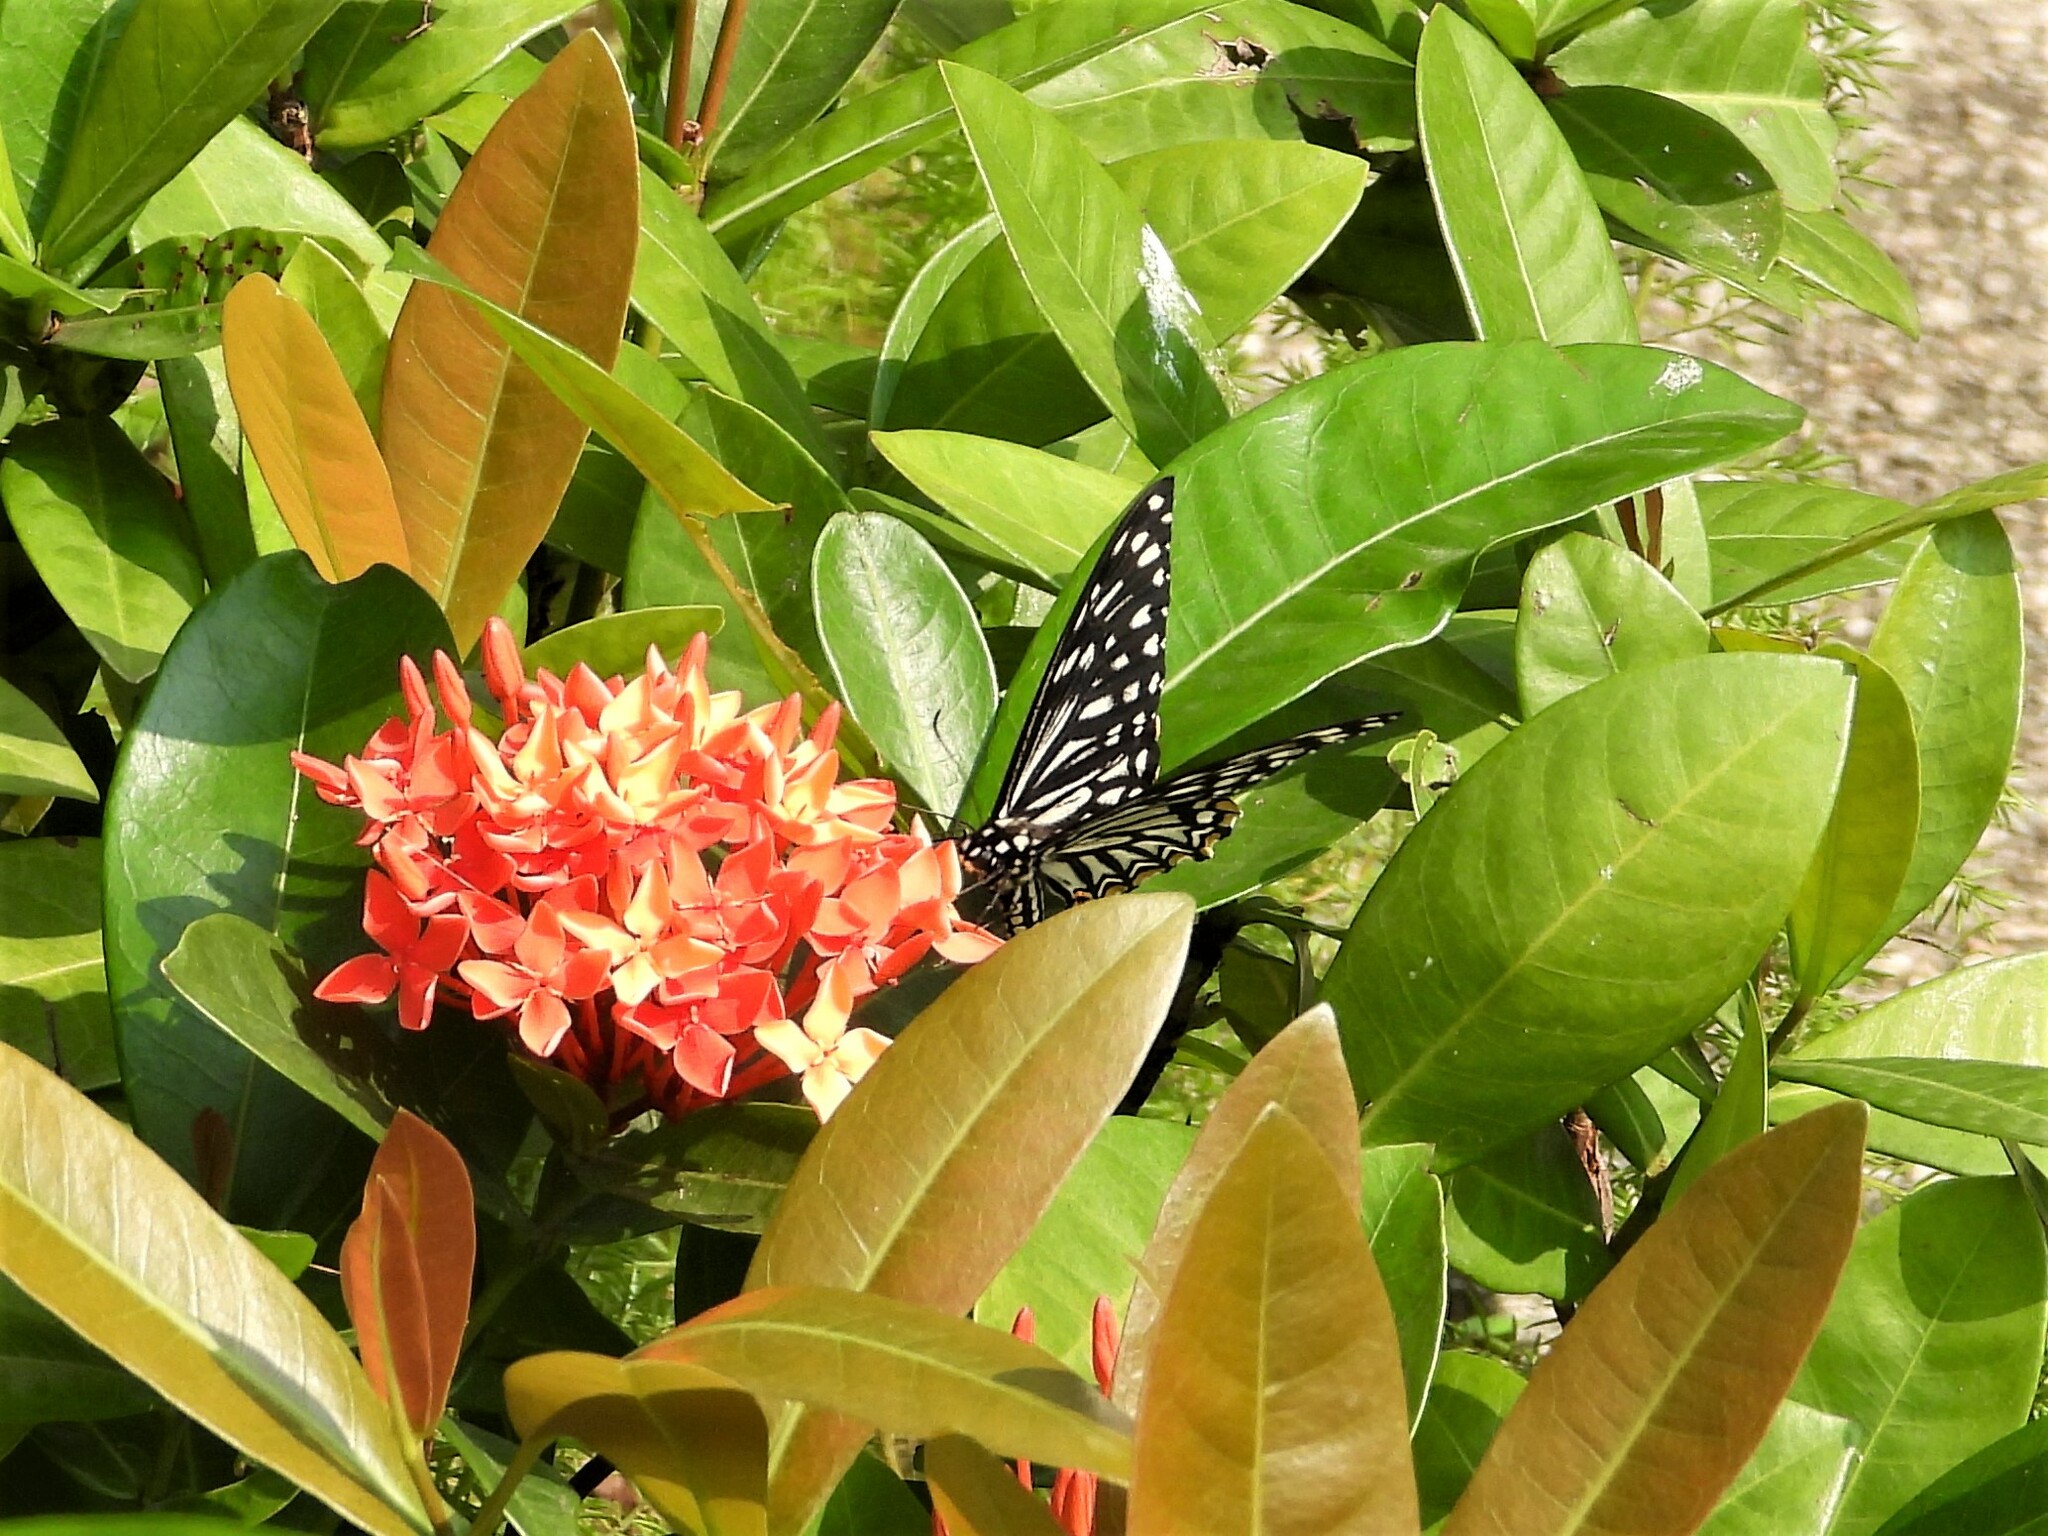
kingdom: Animalia
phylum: Arthropoda
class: Insecta
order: Lepidoptera
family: Papilionidae
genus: Chilasa
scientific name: Chilasa clytia
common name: Common mime
